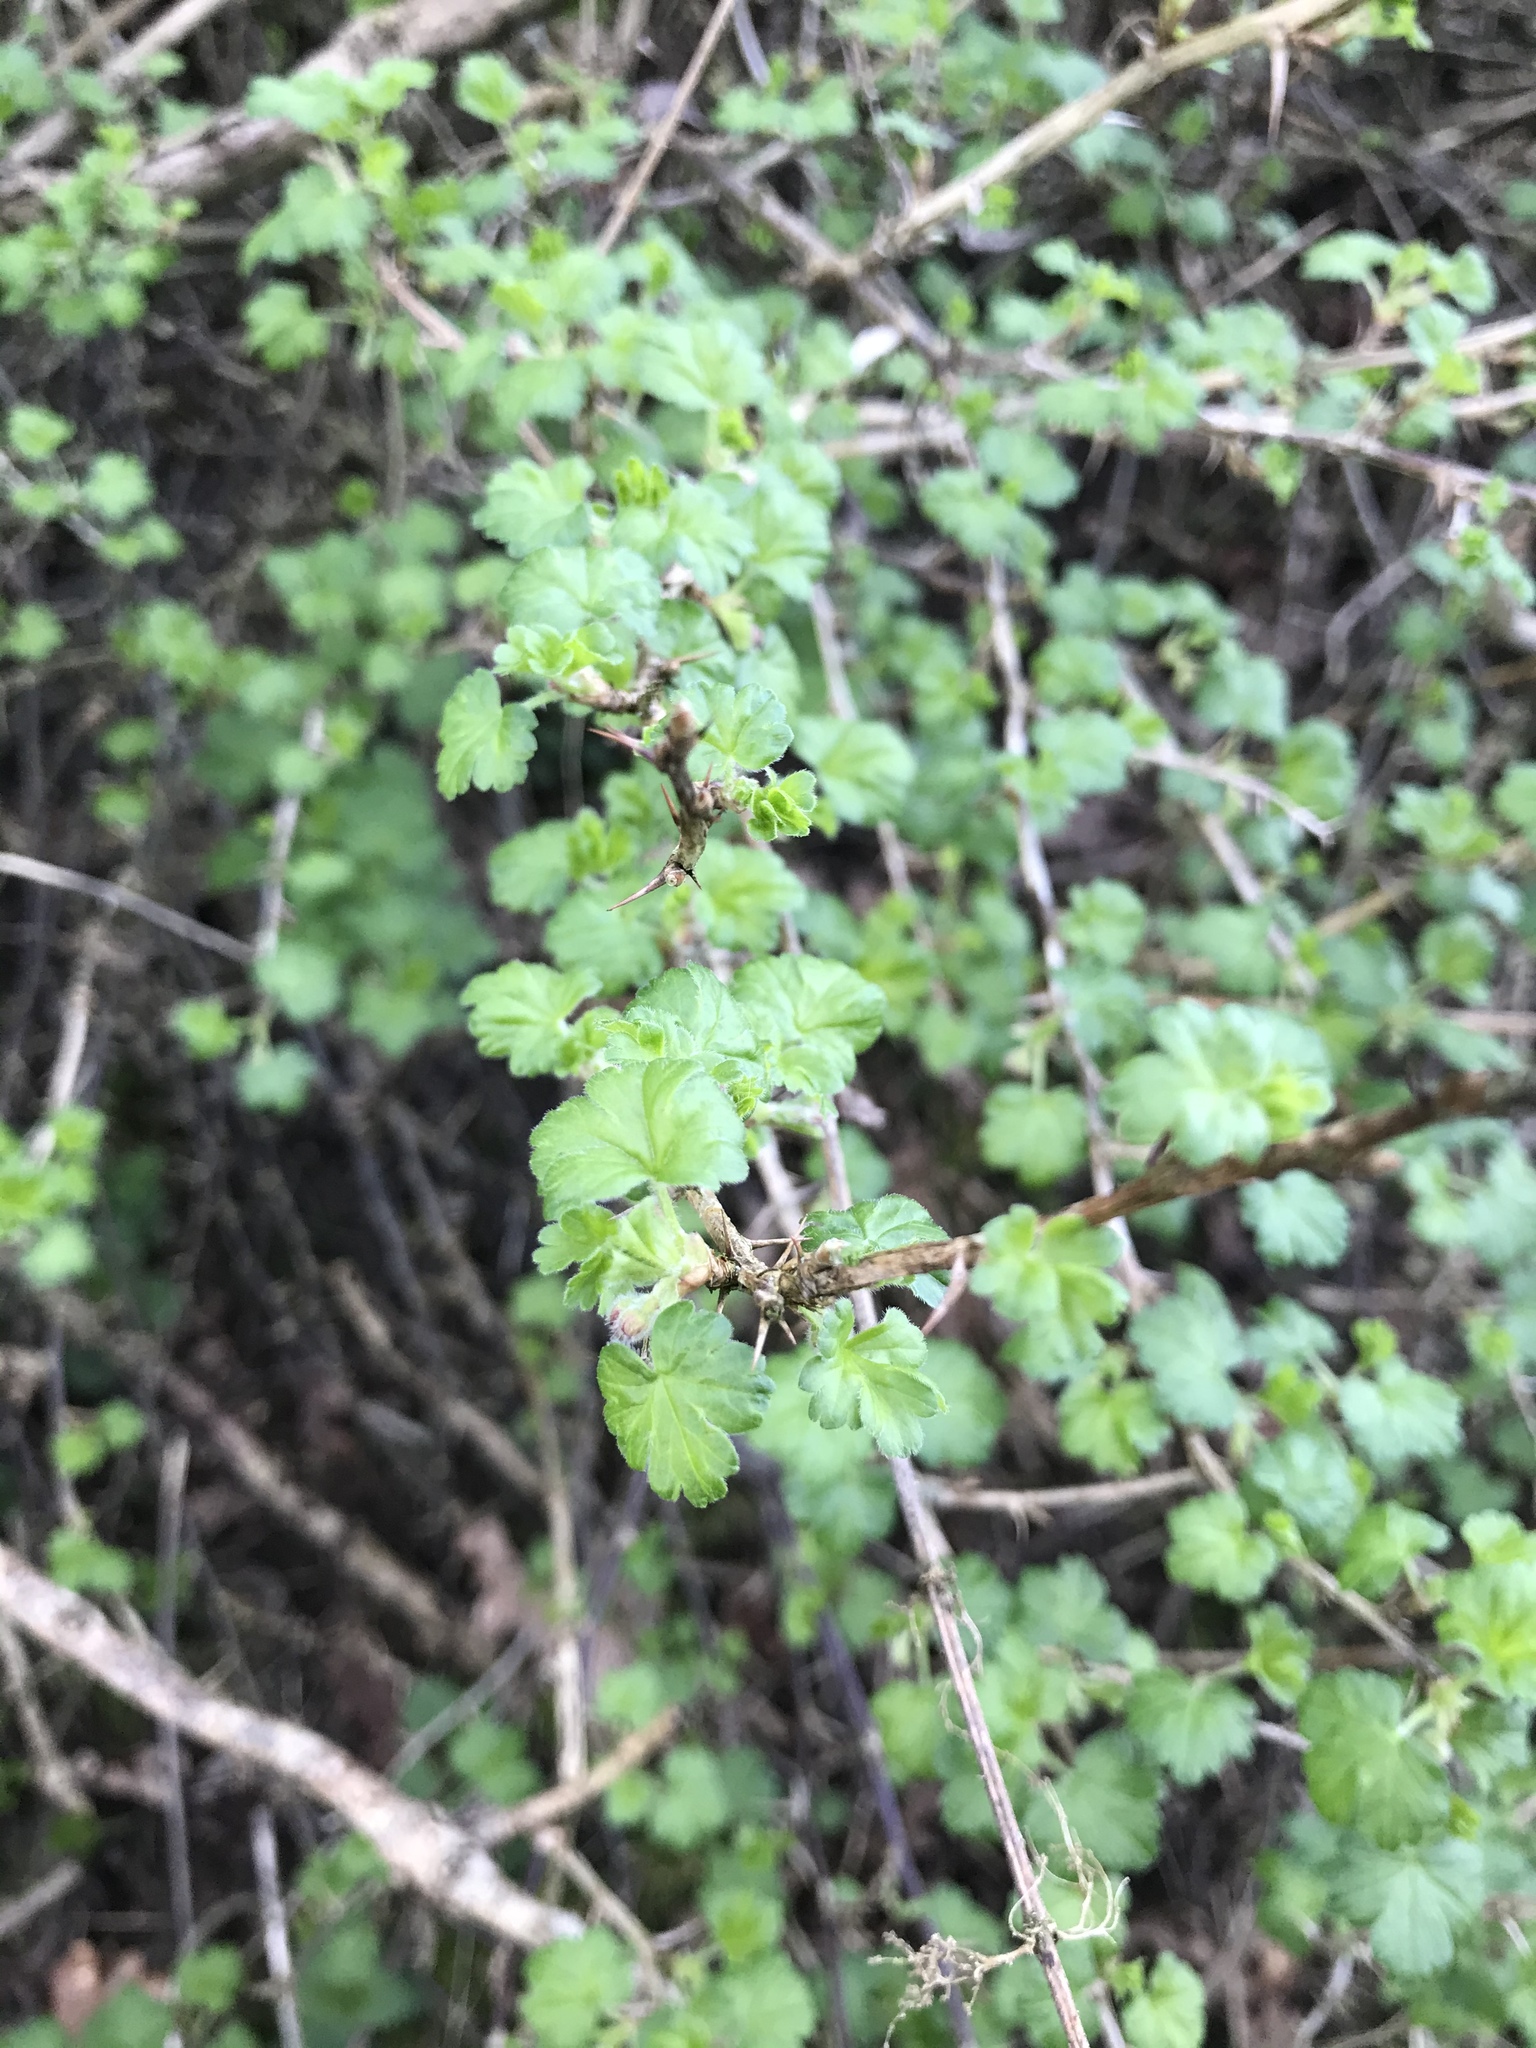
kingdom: Plantae
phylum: Tracheophyta
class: Magnoliopsida
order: Saxifragales
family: Grossulariaceae
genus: Ribes
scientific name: Ribes uva-crispa
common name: Gooseberry
